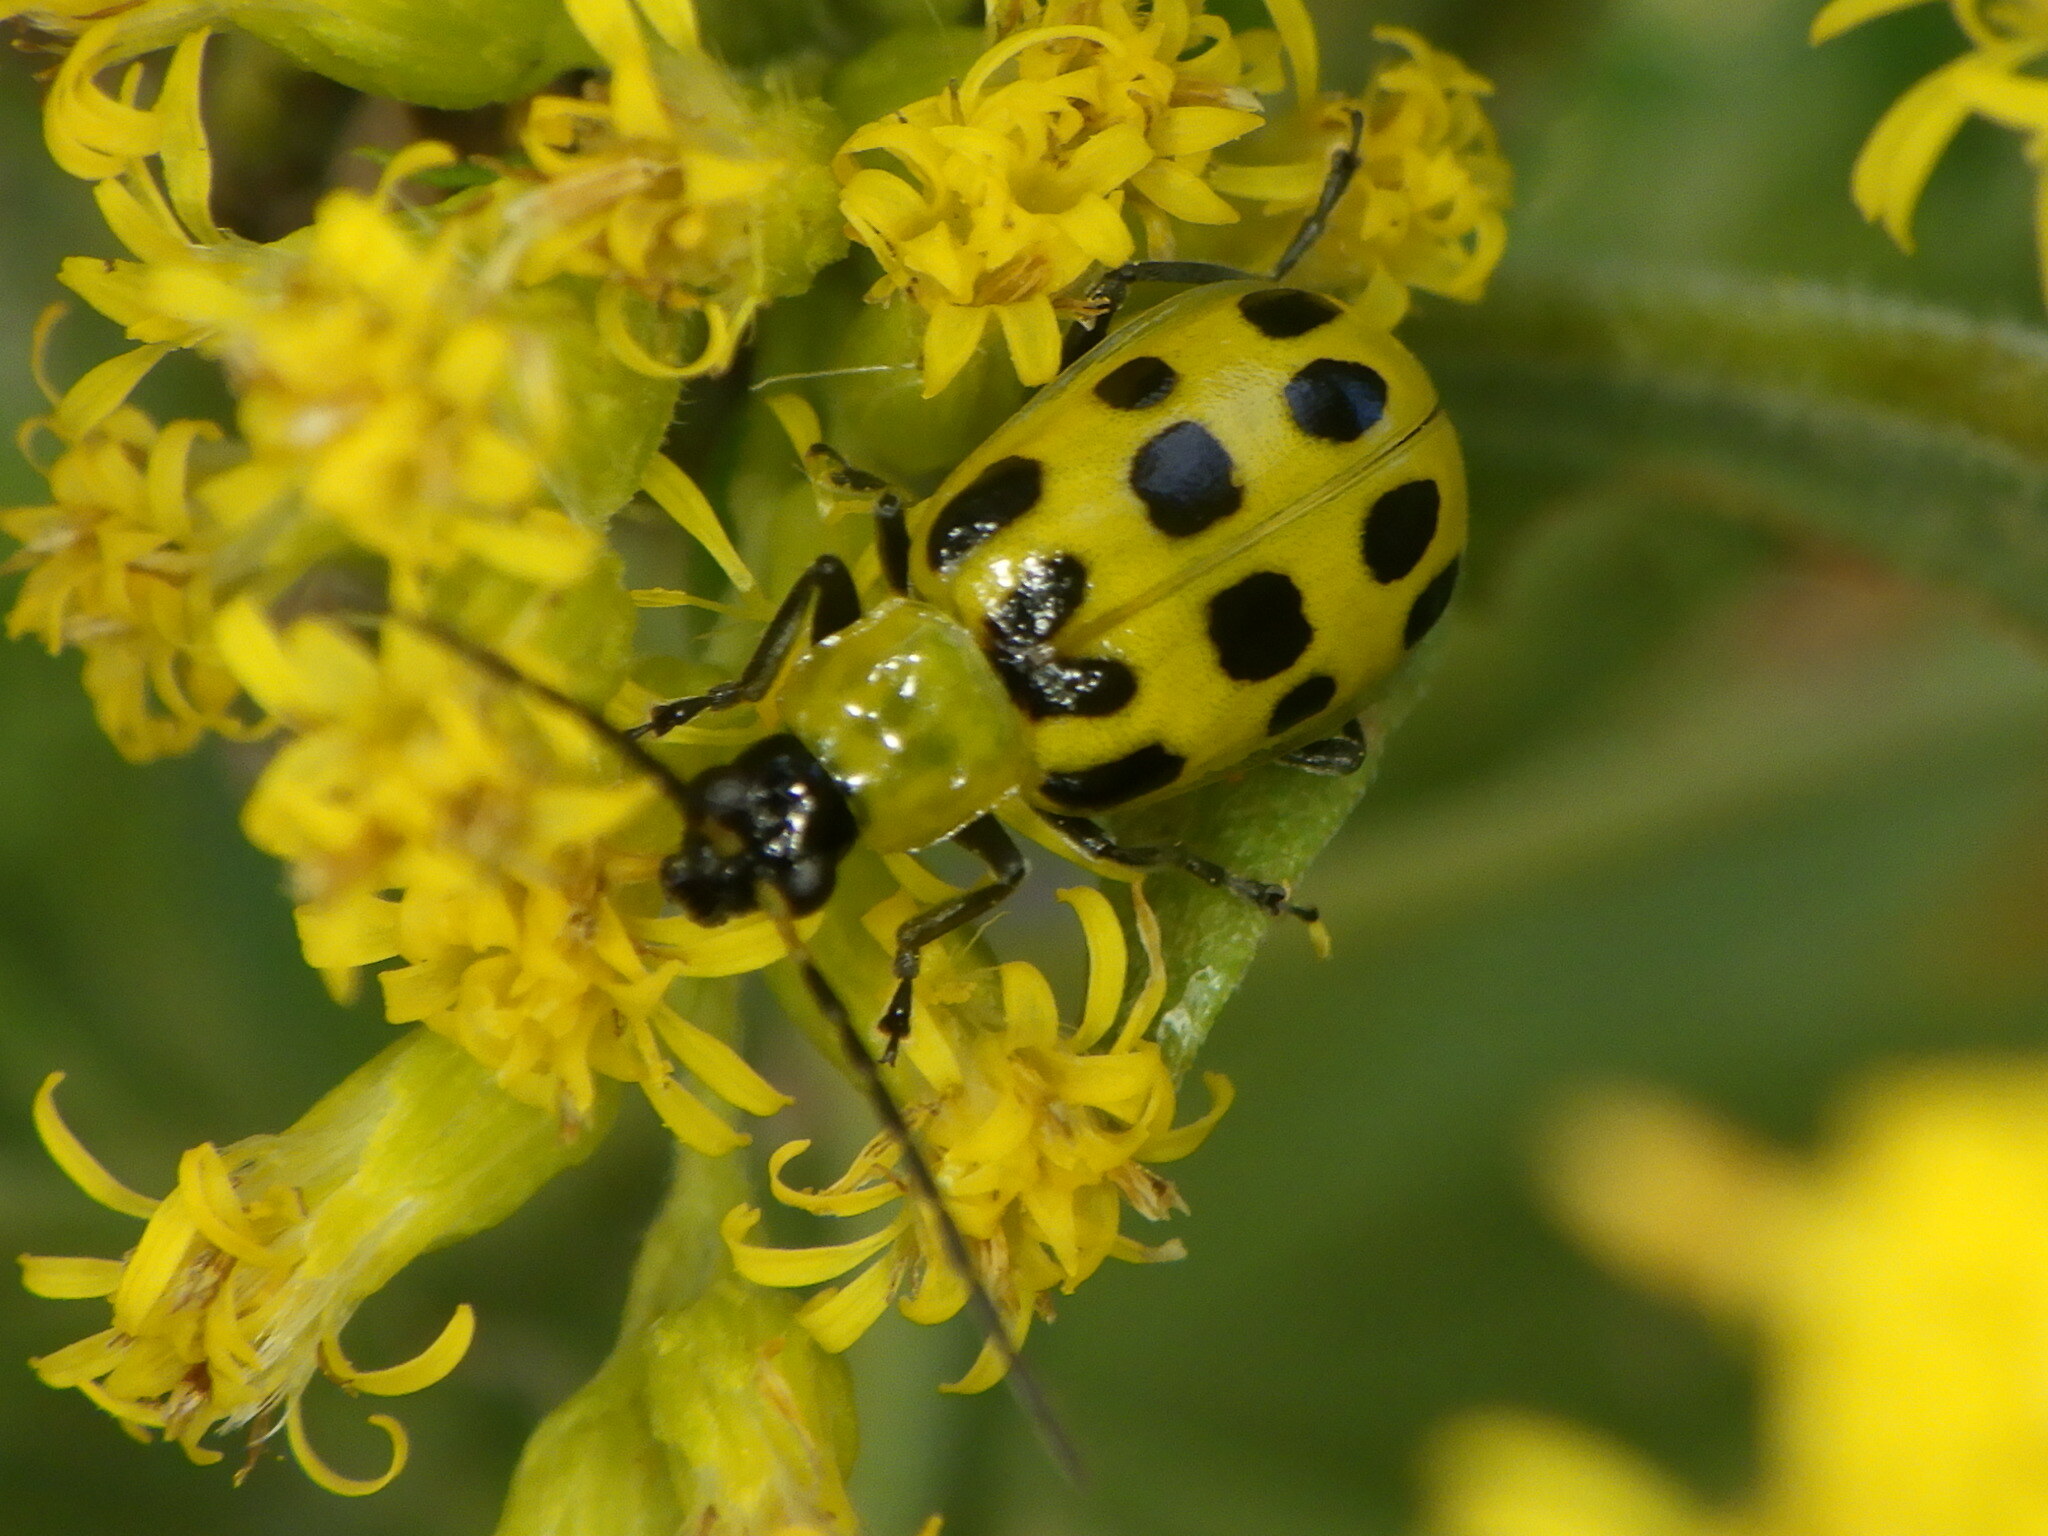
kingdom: Animalia
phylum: Arthropoda
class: Insecta
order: Coleoptera
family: Chrysomelidae
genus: Diabrotica
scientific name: Diabrotica undecimpunctata
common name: Spotted cucumber beetle
